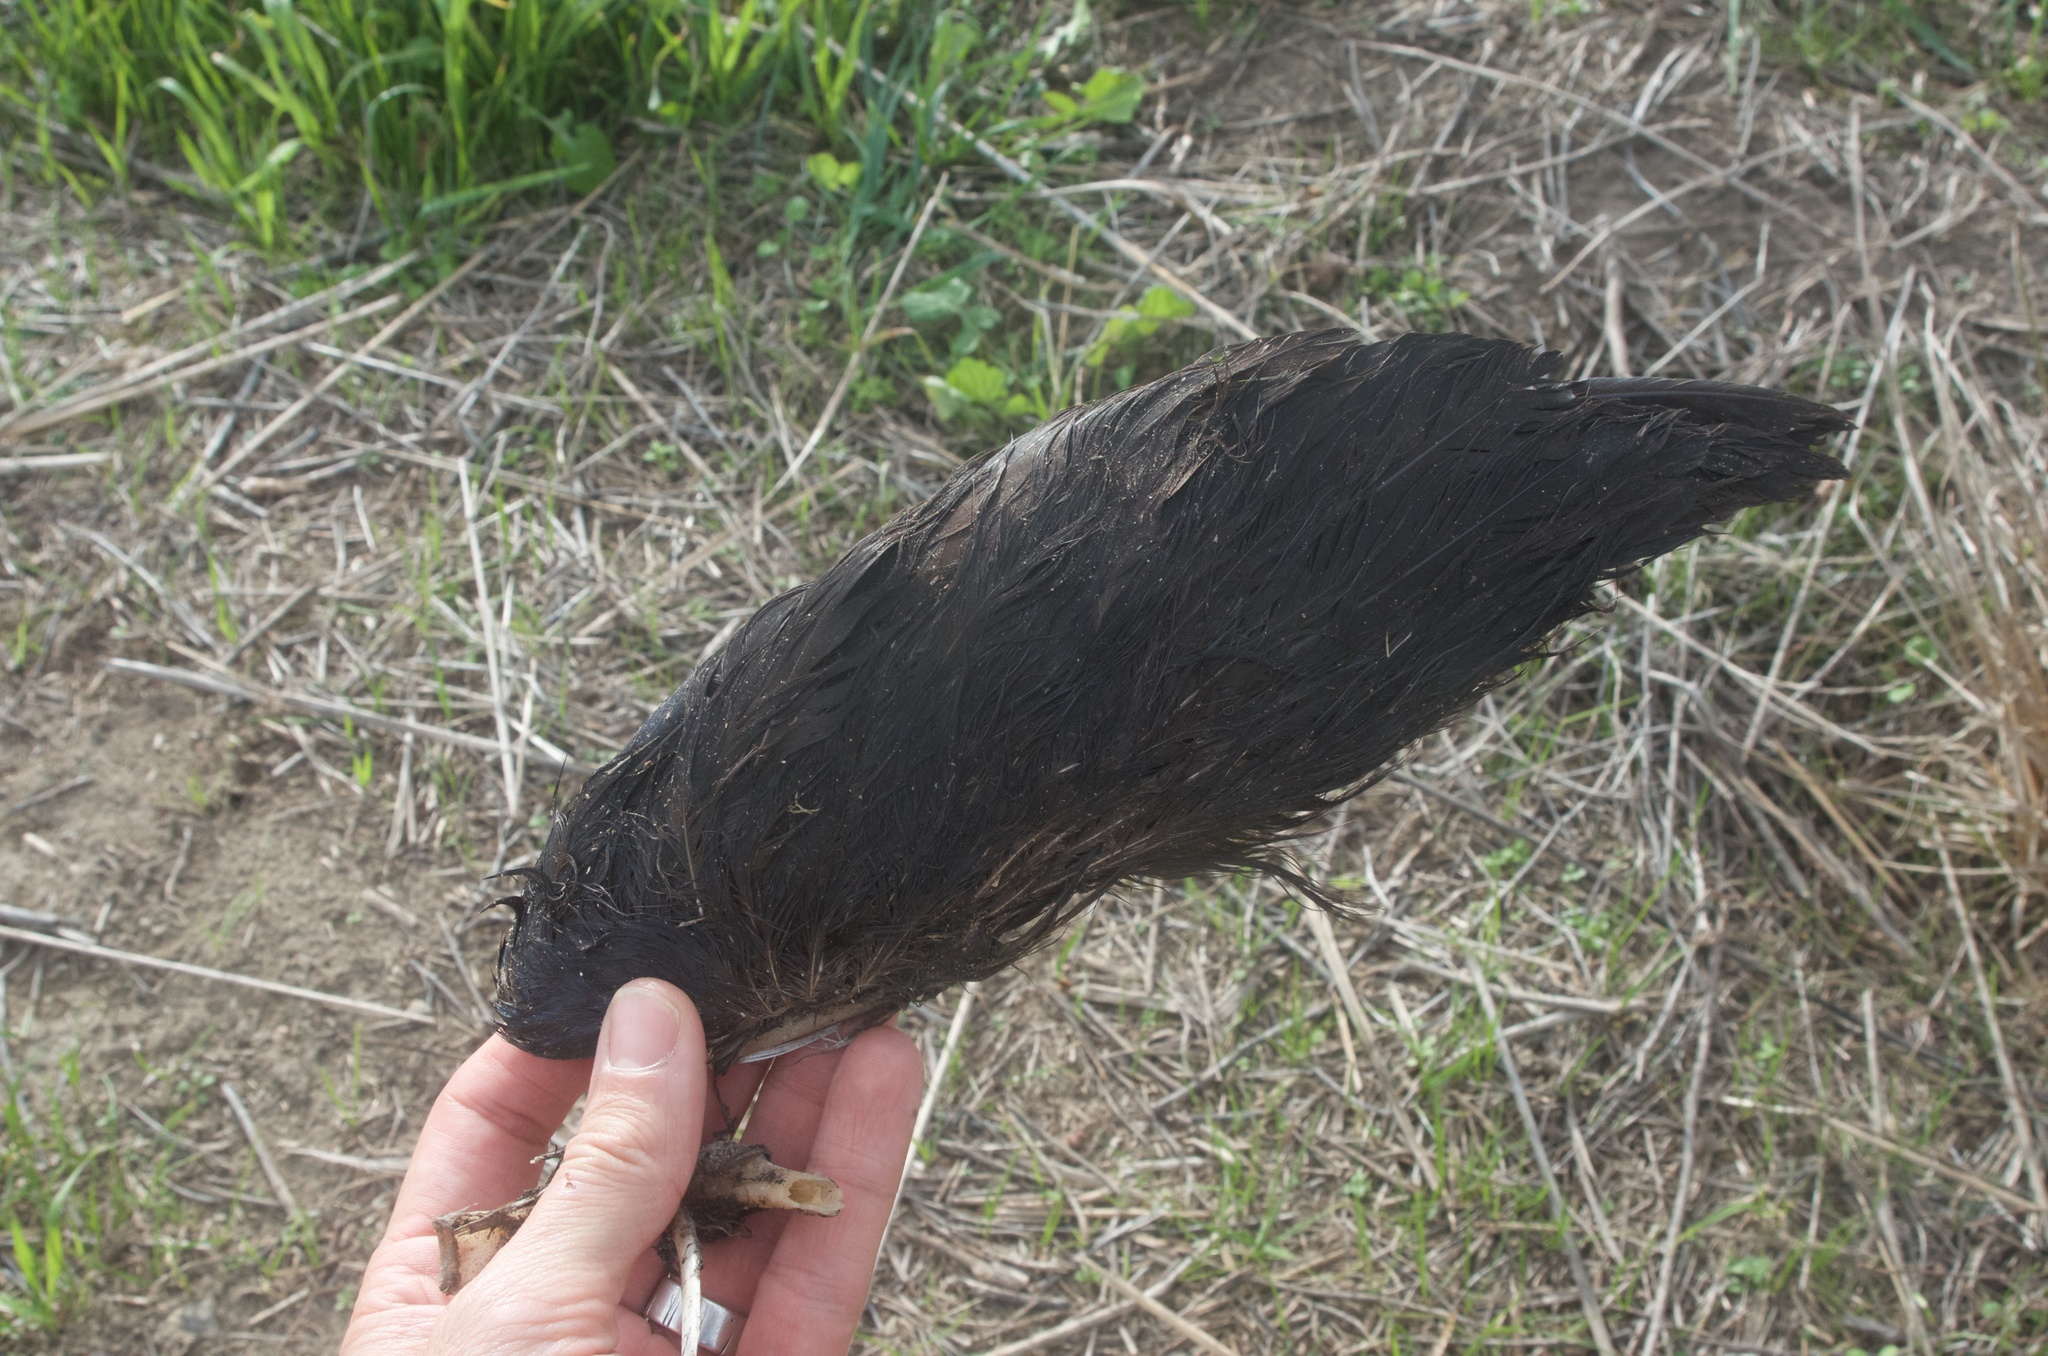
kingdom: Animalia
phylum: Chordata
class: Aves
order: Gruiformes
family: Rallidae
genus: Porphyrio
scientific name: Porphyrio melanotus
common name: Australasian swamphen
